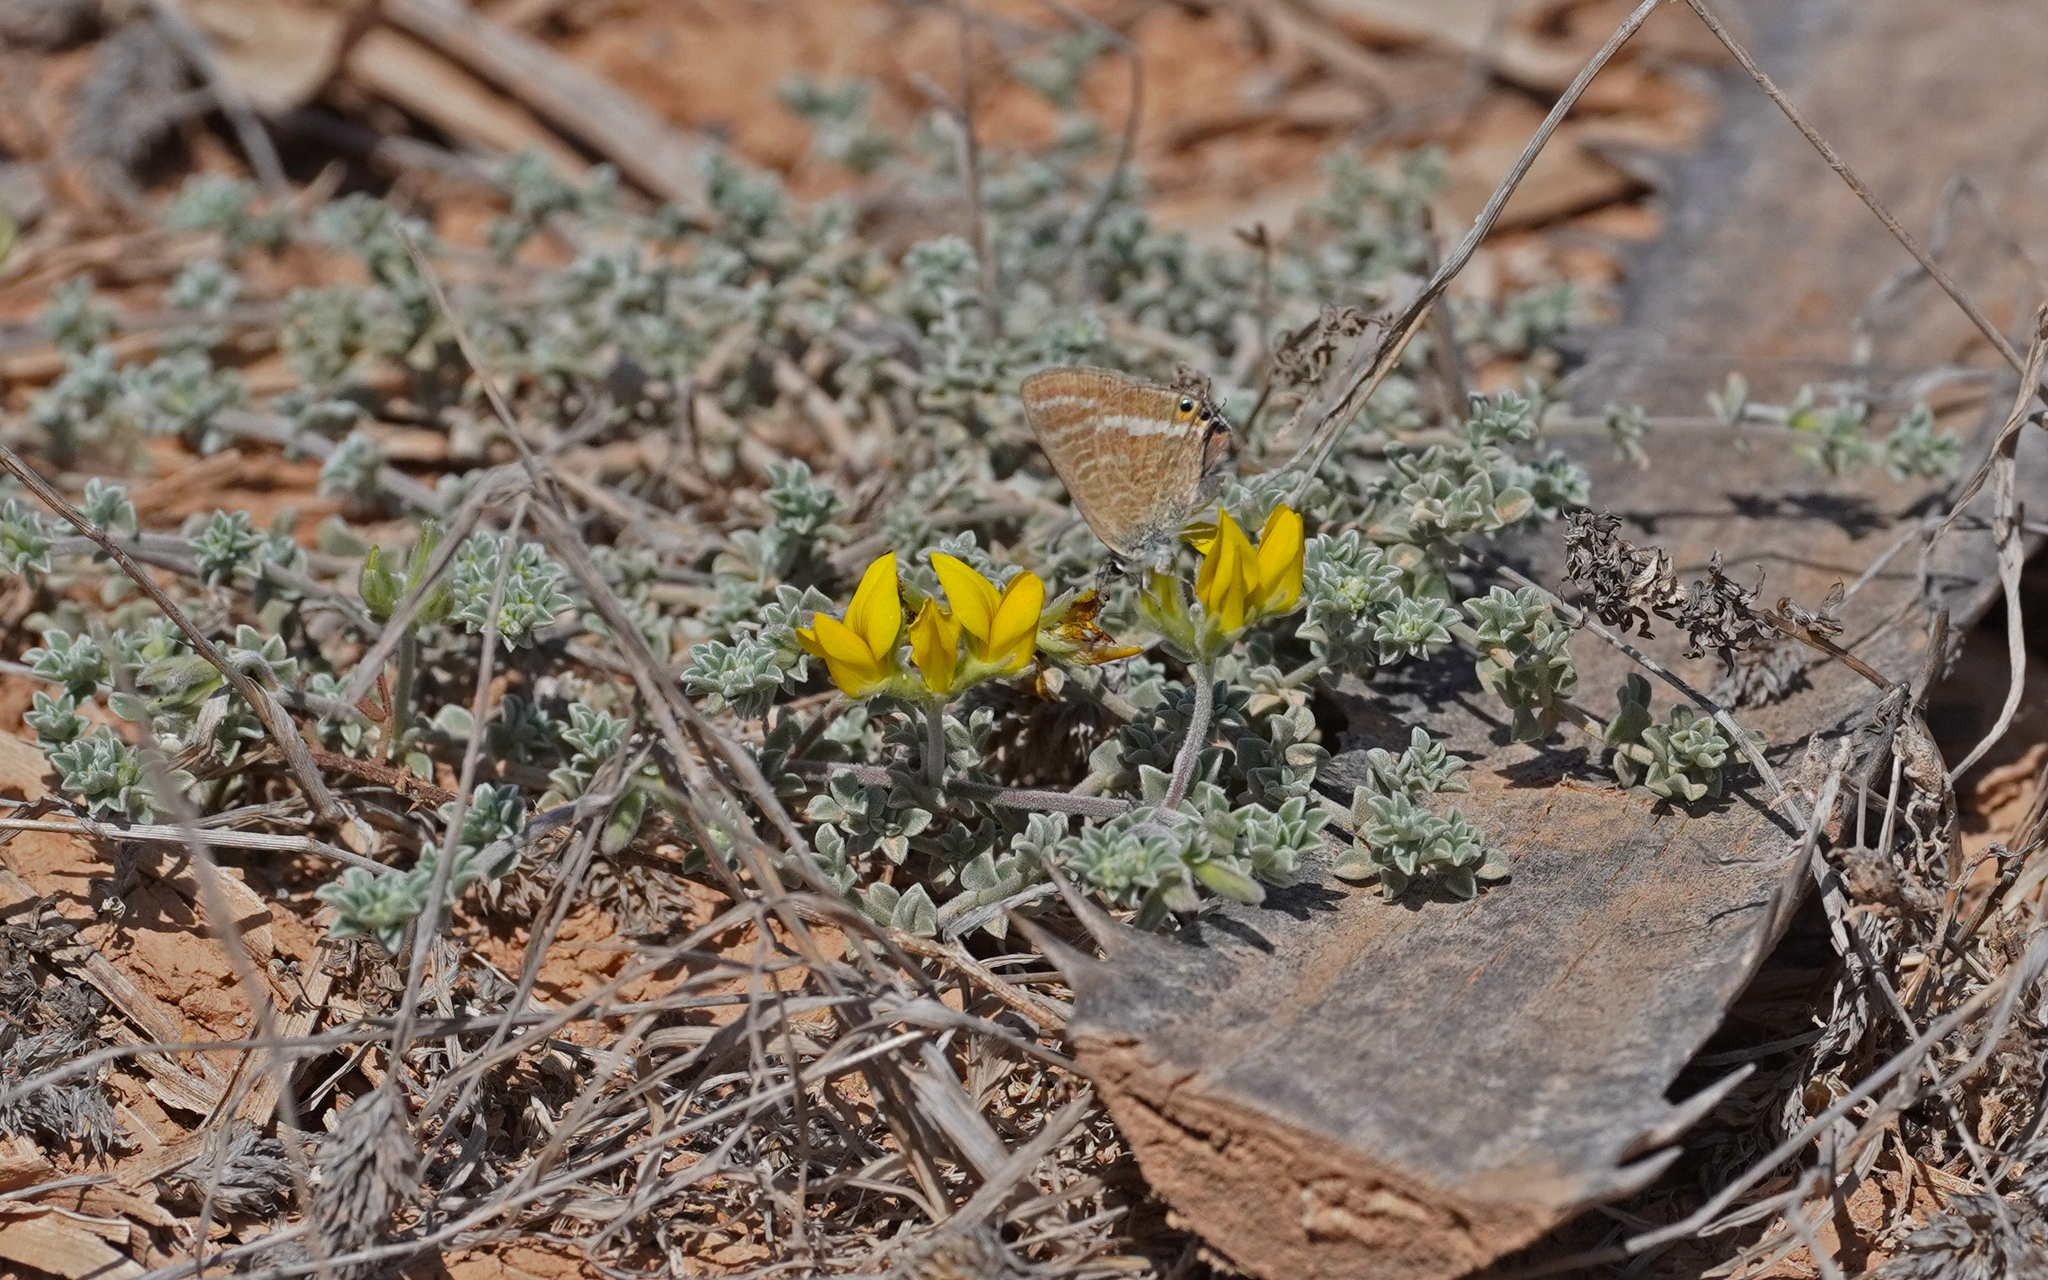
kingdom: Animalia
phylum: Arthropoda
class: Insecta
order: Lepidoptera
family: Lycaenidae
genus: Lampides
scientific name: Lampides boeticus
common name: Long-tailed blue
